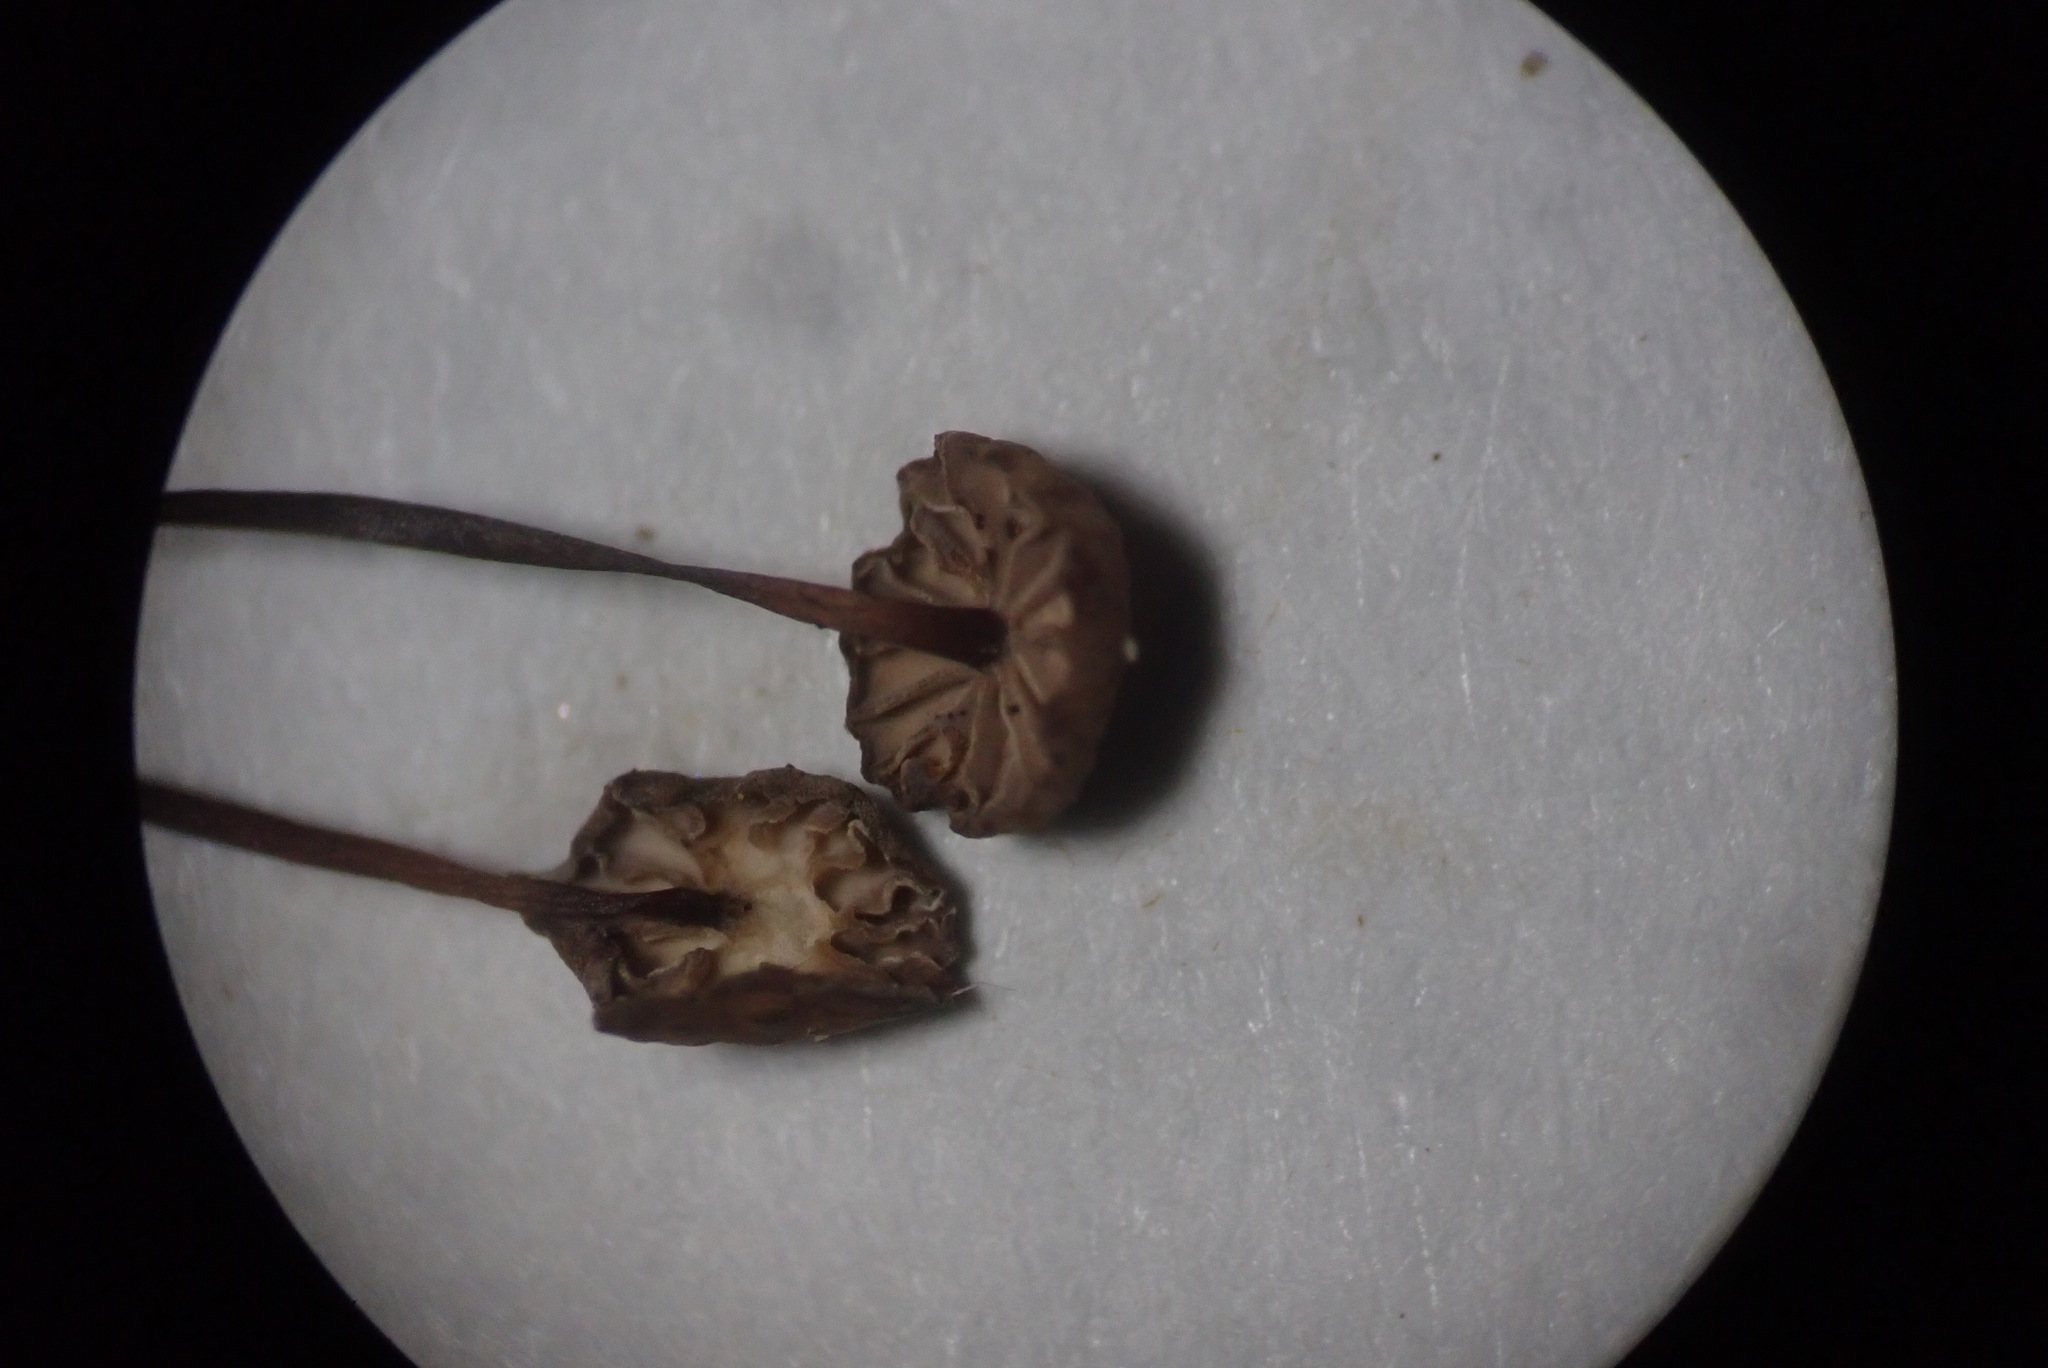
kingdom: Fungi
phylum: Basidiomycota
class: Agaricomycetes
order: Agaricales
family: Omphalotaceae
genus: Collybiopsis
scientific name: Collybiopsis quercophila
